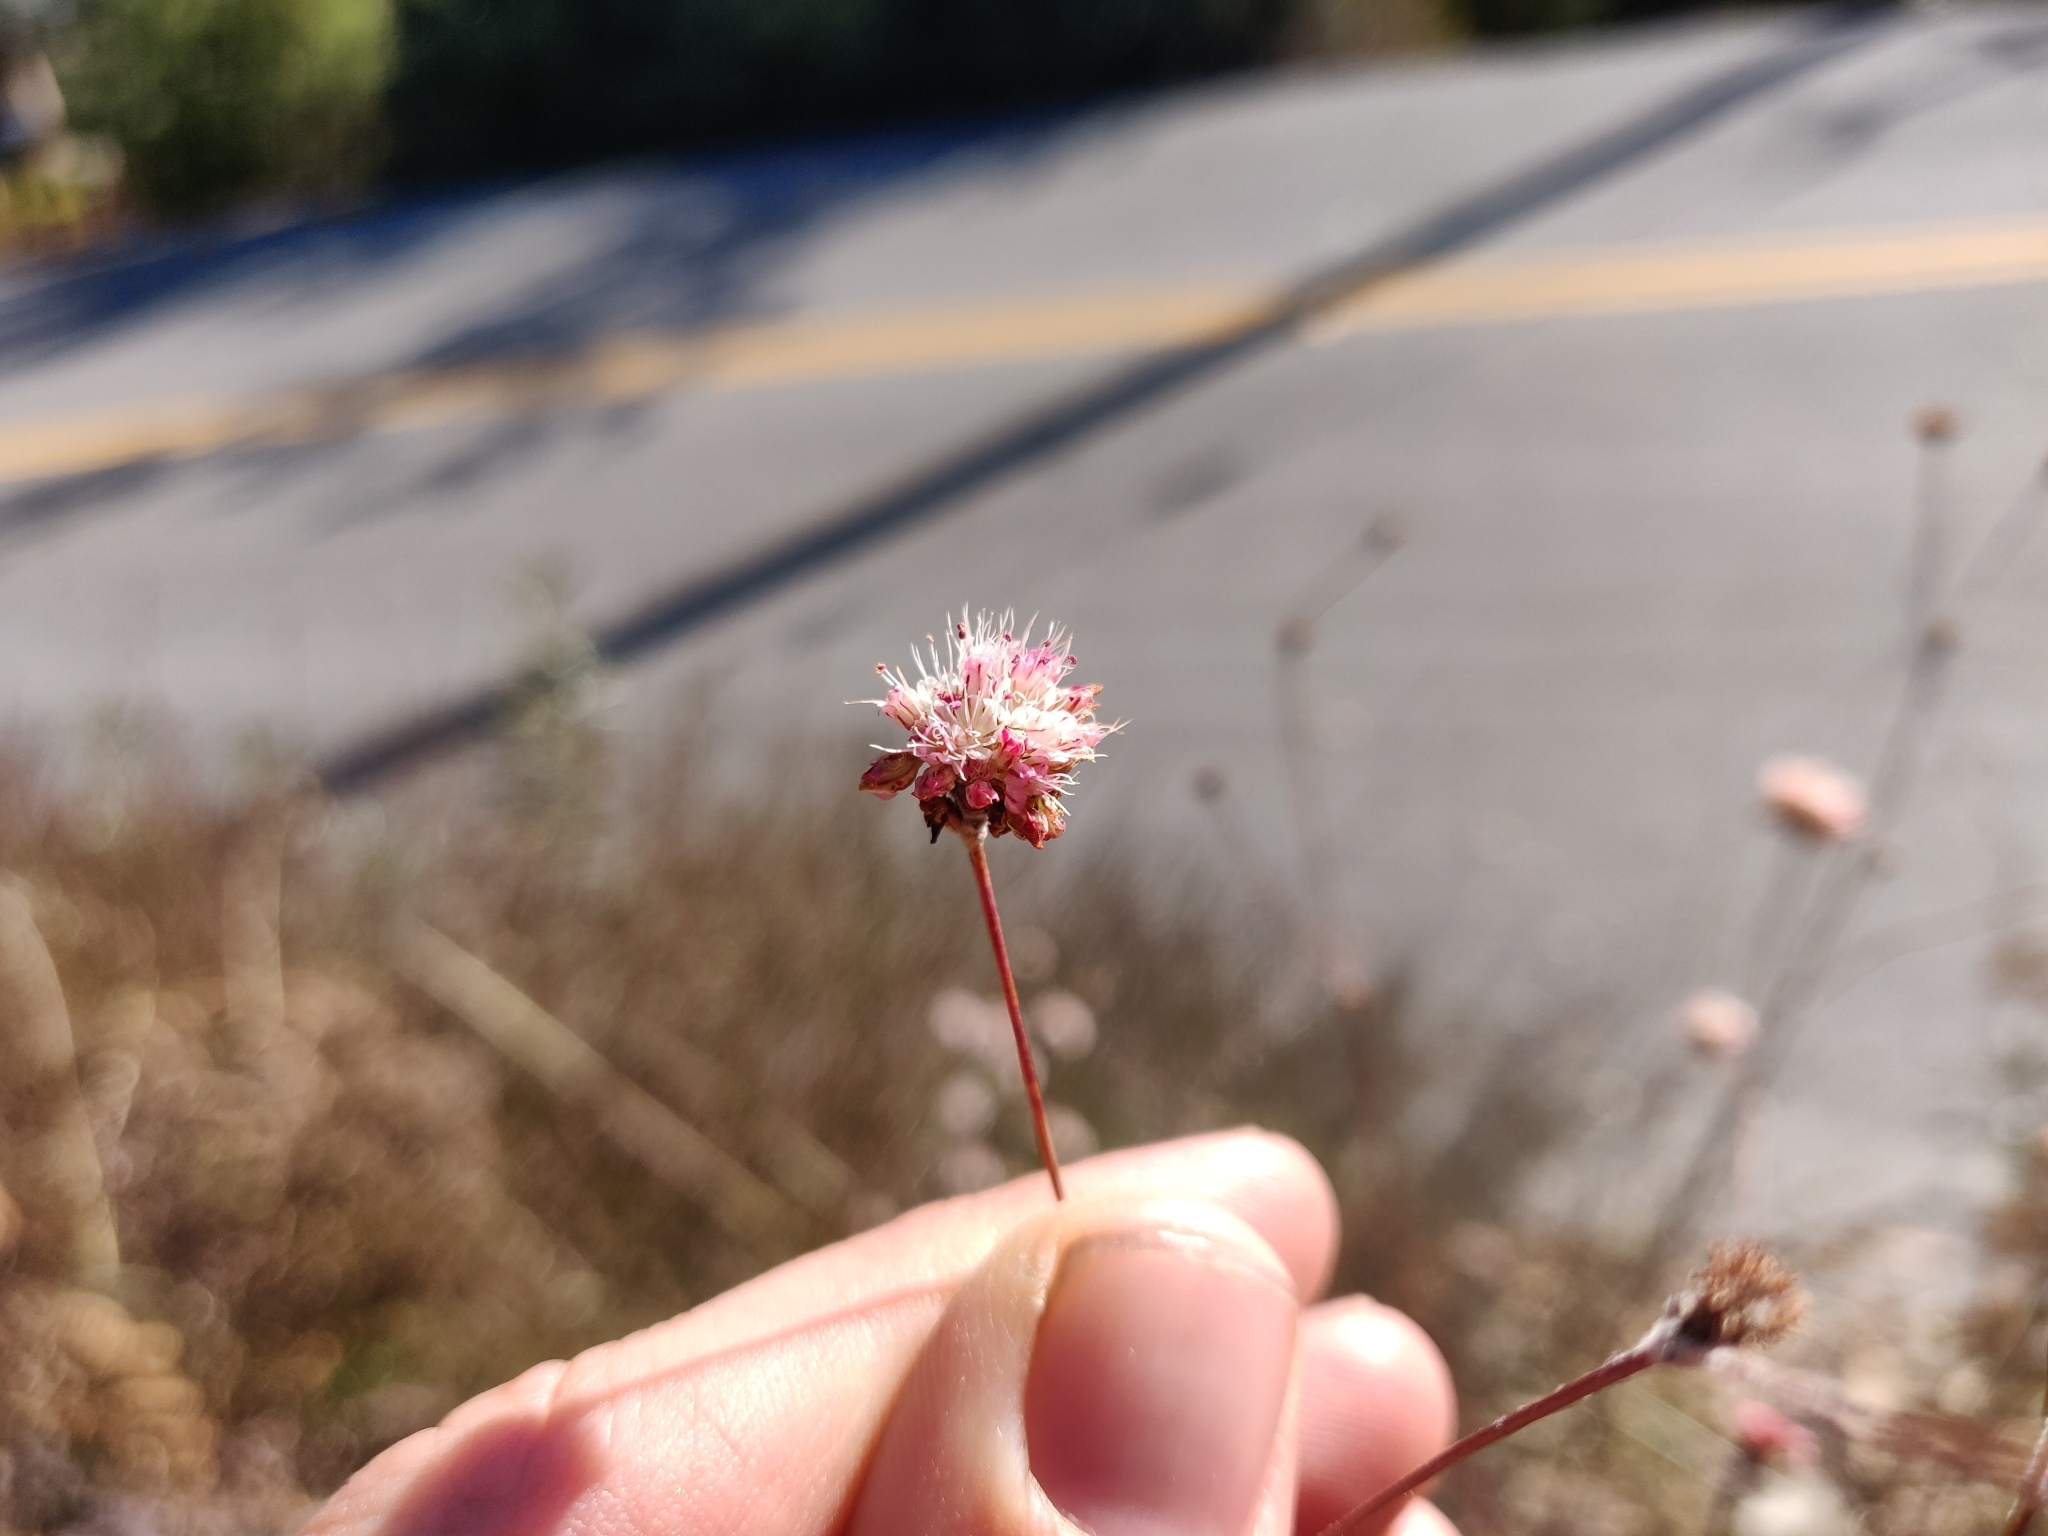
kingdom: Plantae
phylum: Tracheophyta
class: Magnoliopsida
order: Caryophyllales
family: Polygonaceae
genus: Eriogonum
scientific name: Eriogonum nudum
